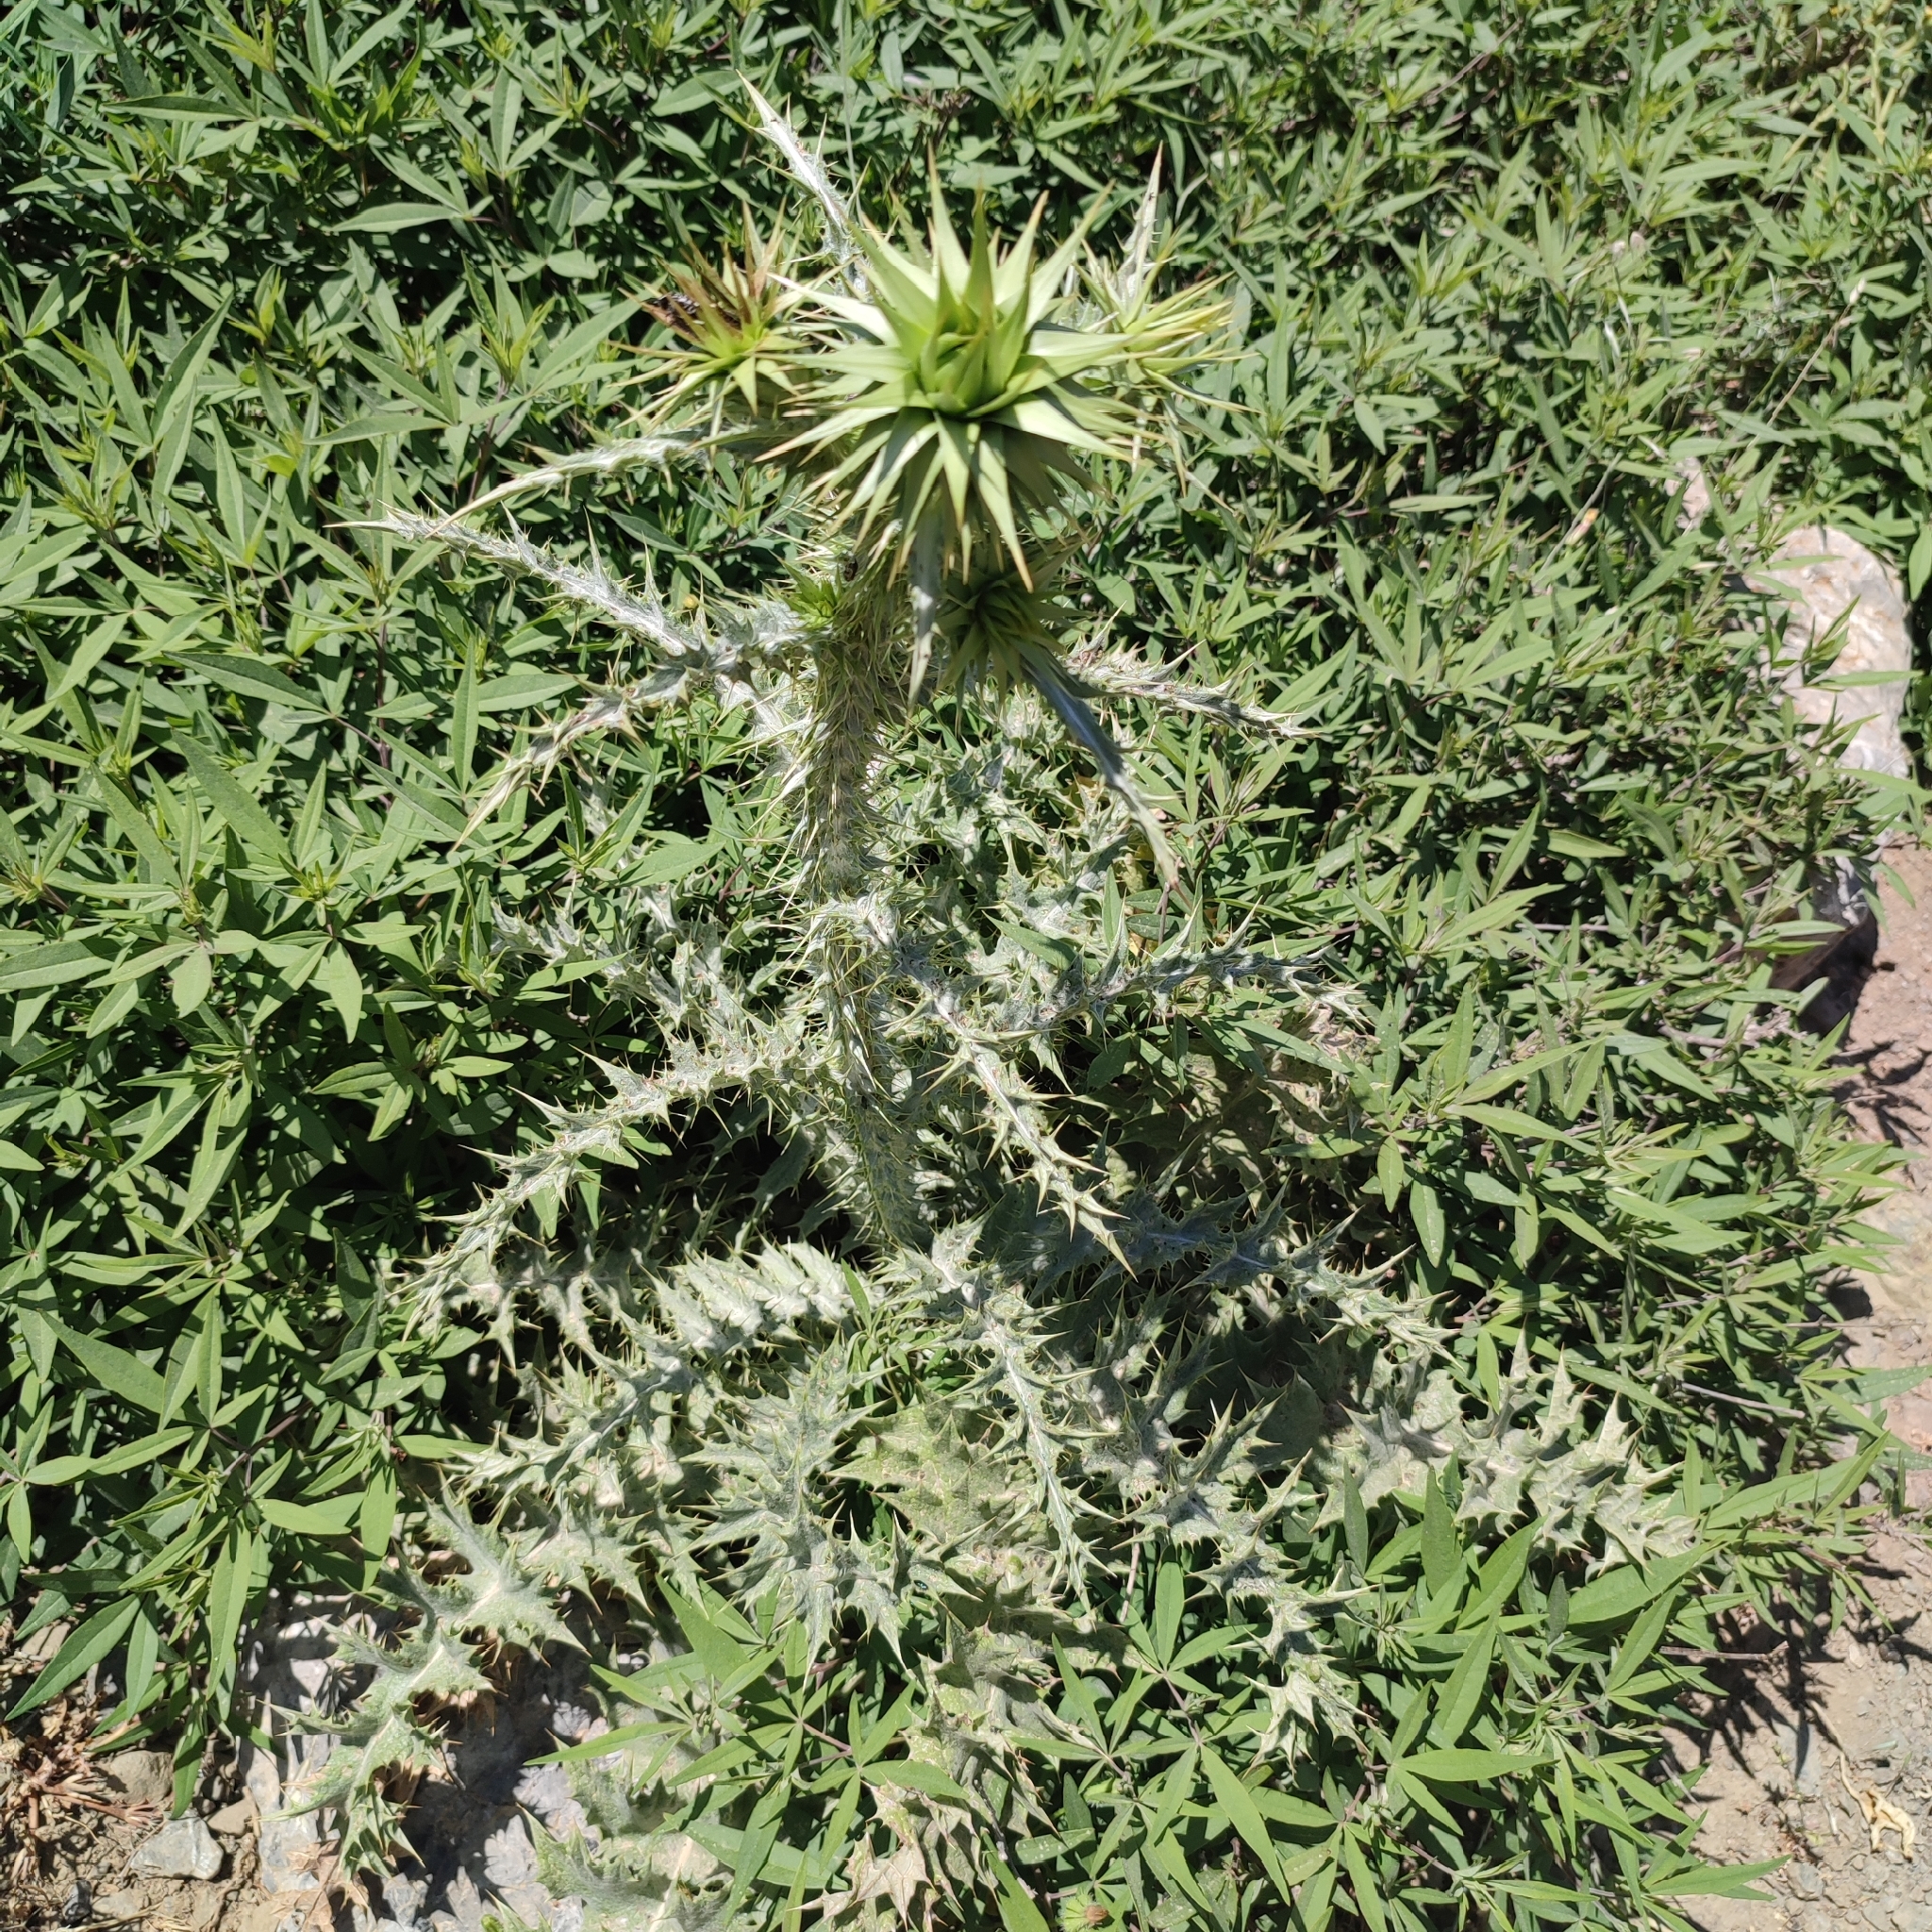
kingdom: Plantae
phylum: Tracheophyta
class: Magnoliopsida
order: Asterales
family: Asteraceae
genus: Onopordum
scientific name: Onopordum bracteatum
